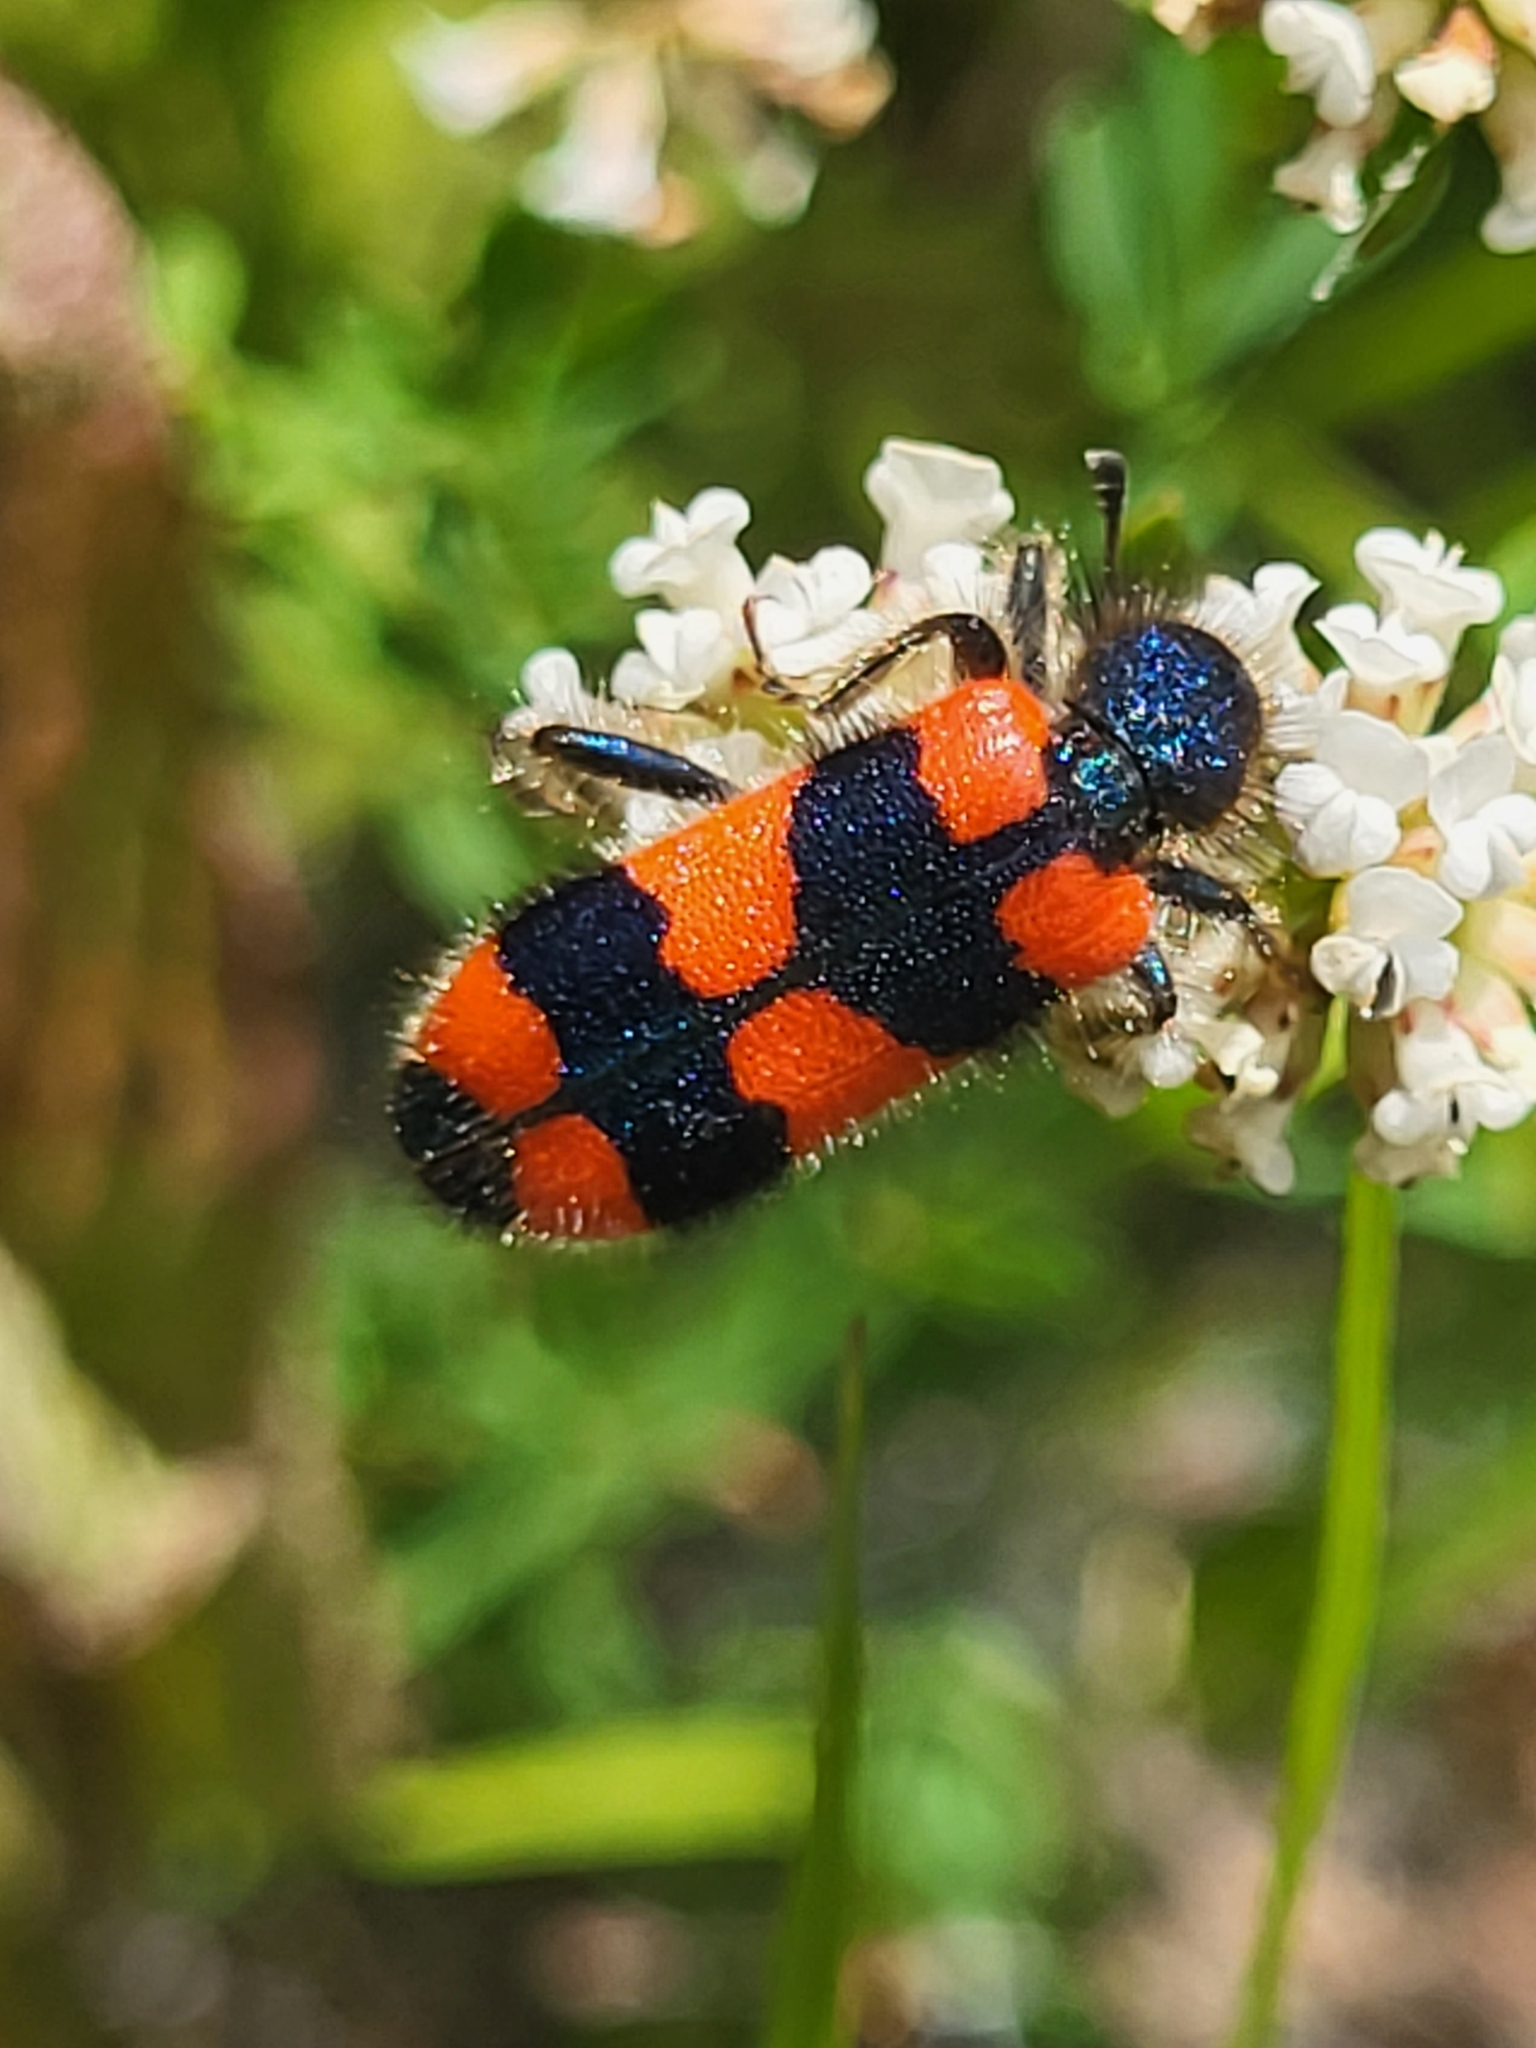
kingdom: Animalia
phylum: Arthropoda
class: Insecta
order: Coleoptera
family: Cleridae
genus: Trichodes
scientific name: Trichodes favarius
